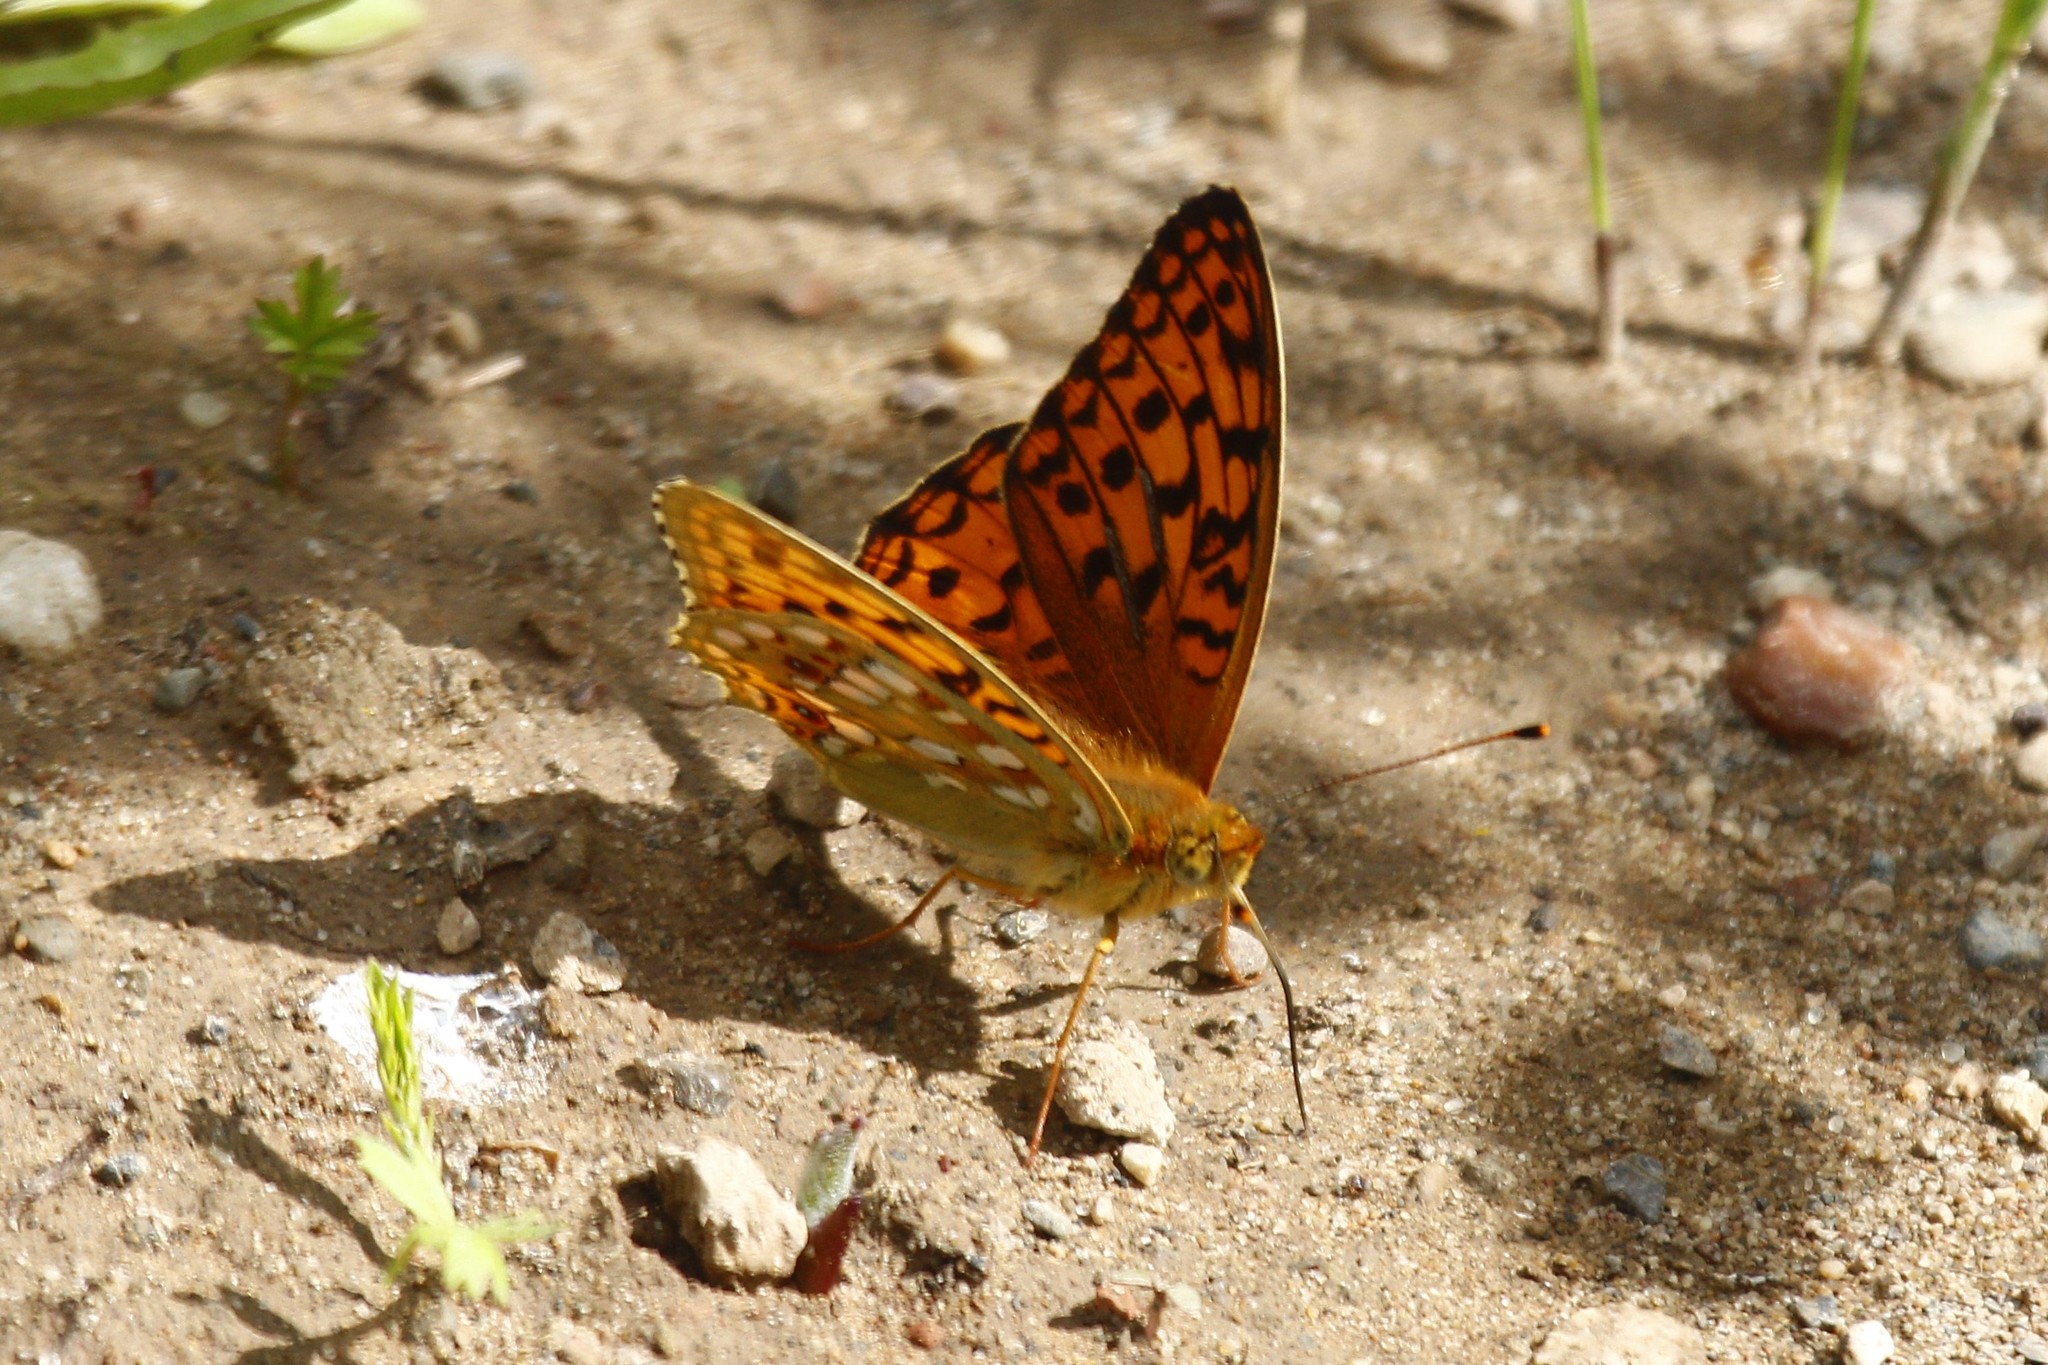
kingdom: Animalia
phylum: Arthropoda
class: Insecta
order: Lepidoptera
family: Nymphalidae
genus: Fabriciana
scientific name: Fabriciana adippe
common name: High brown fritillary
